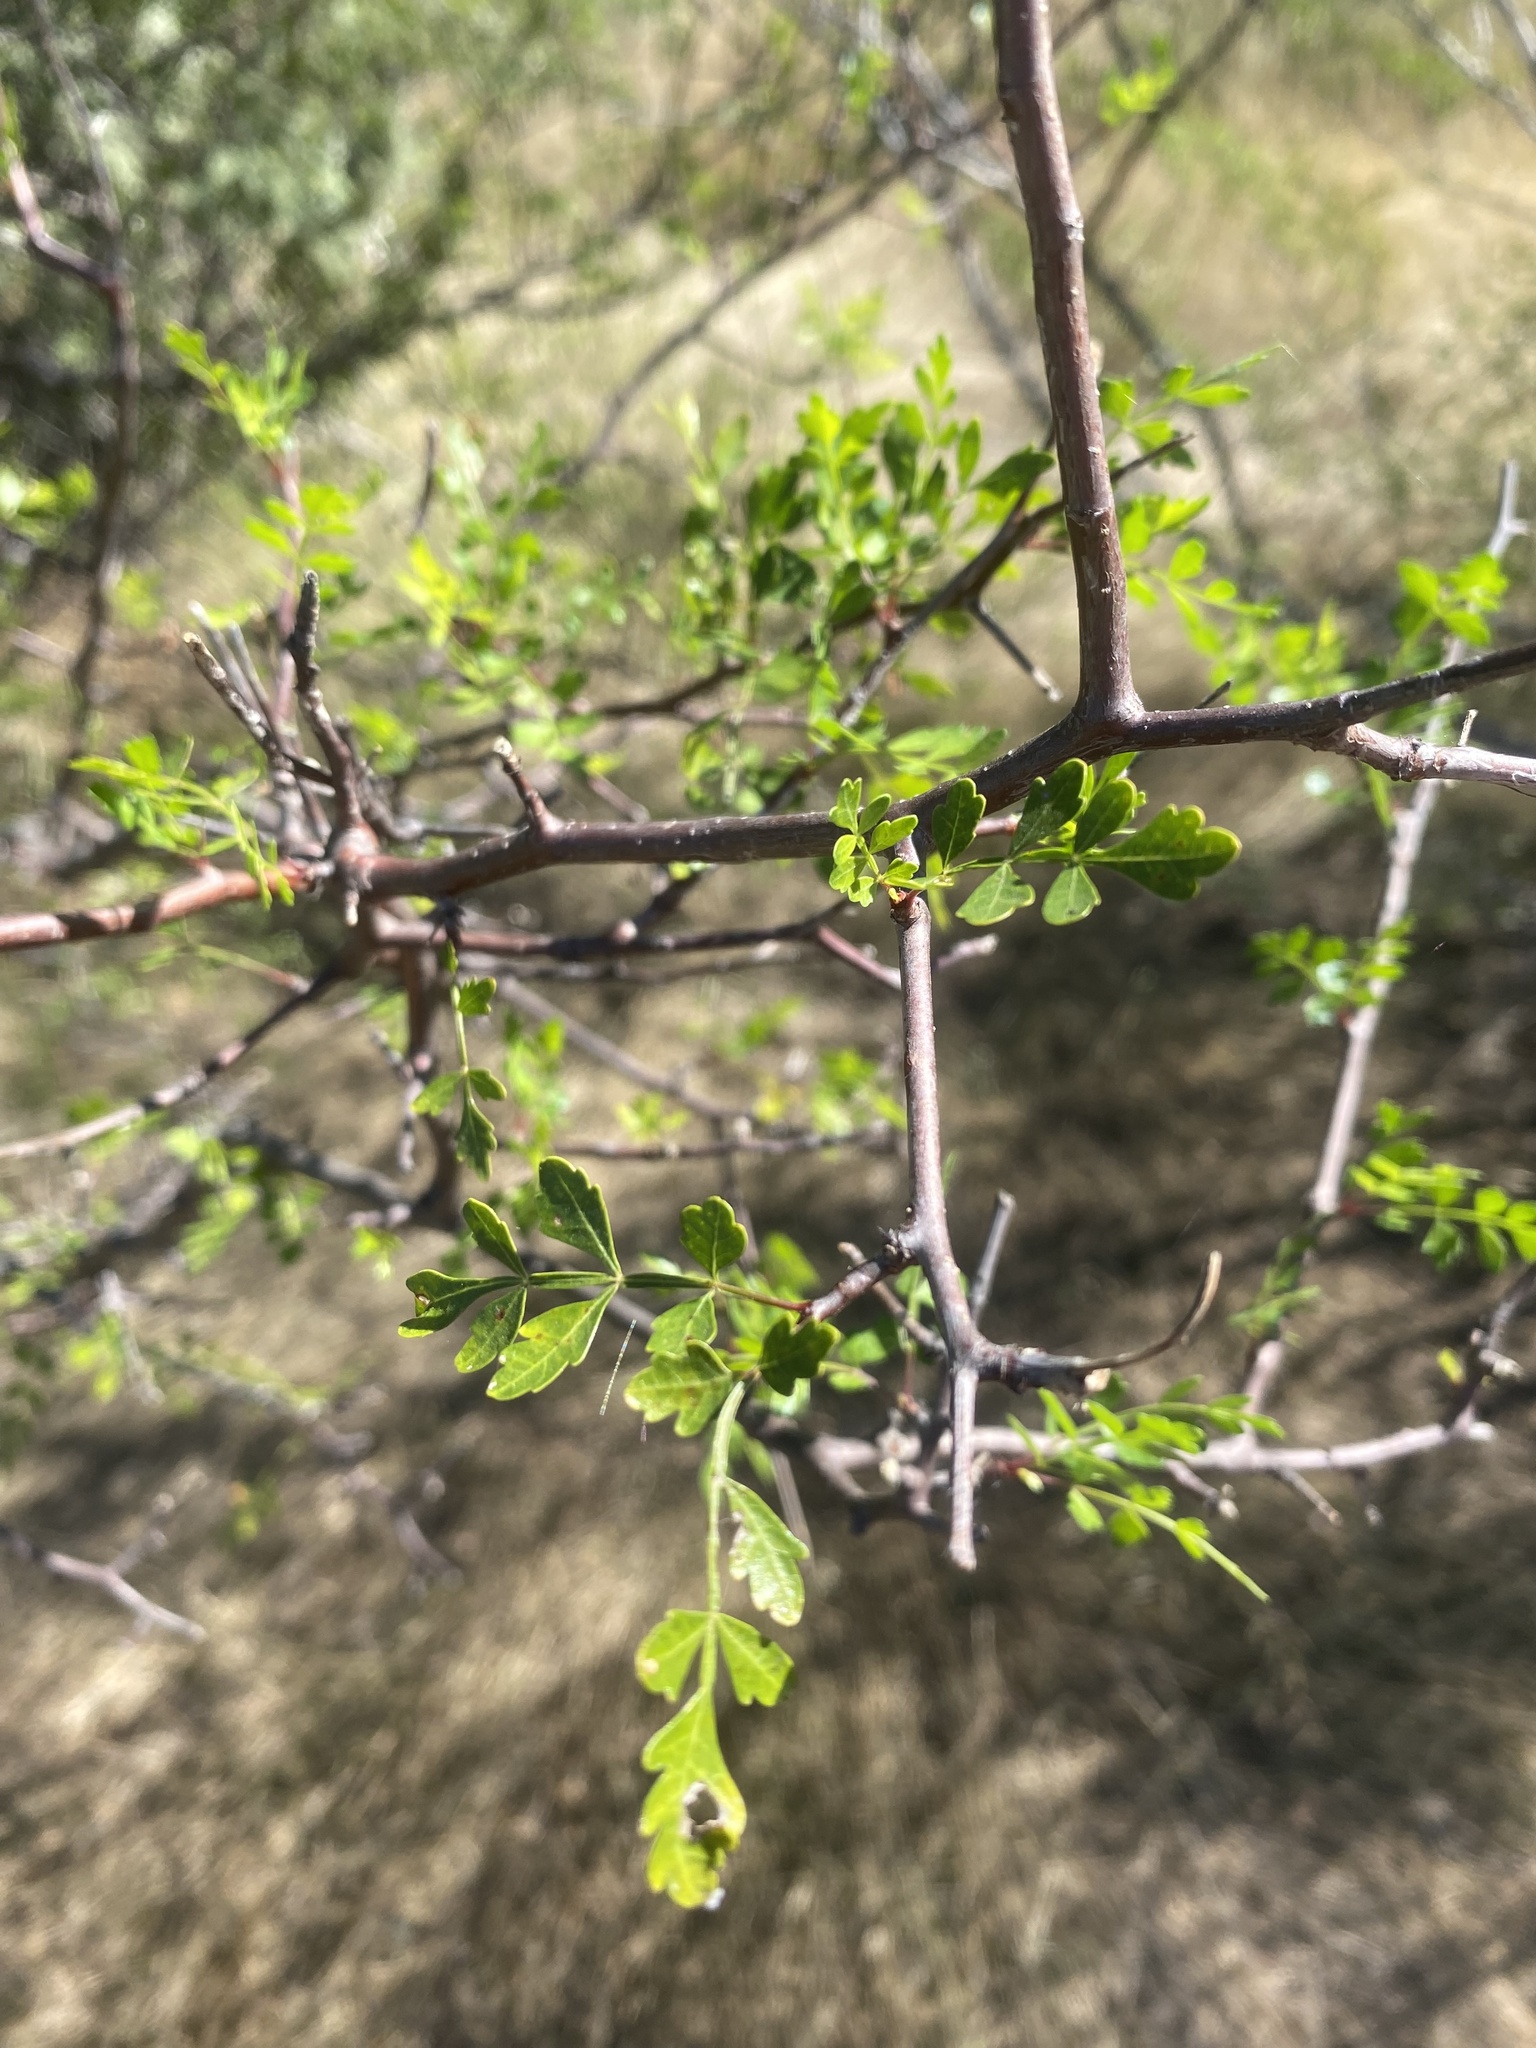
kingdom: Plantae
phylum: Tracheophyta
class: Magnoliopsida
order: Sapindales
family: Burseraceae
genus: Bursera
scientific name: Bursera laxiflora
